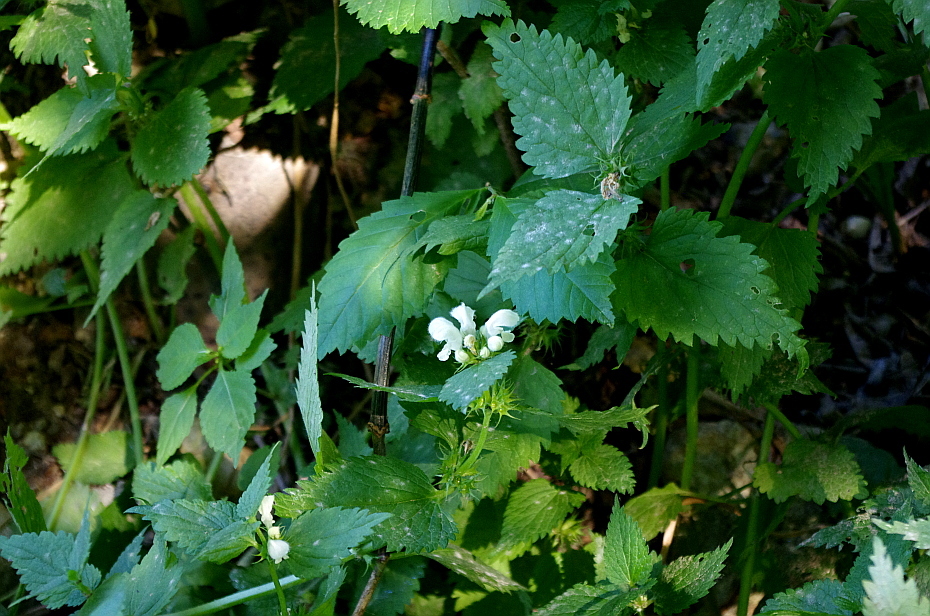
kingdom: Plantae
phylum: Tracheophyta
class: Magnoliopsida
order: Lamiales
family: Lamiaceae
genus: Lamium
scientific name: Lamium album
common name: White dead-nettle
